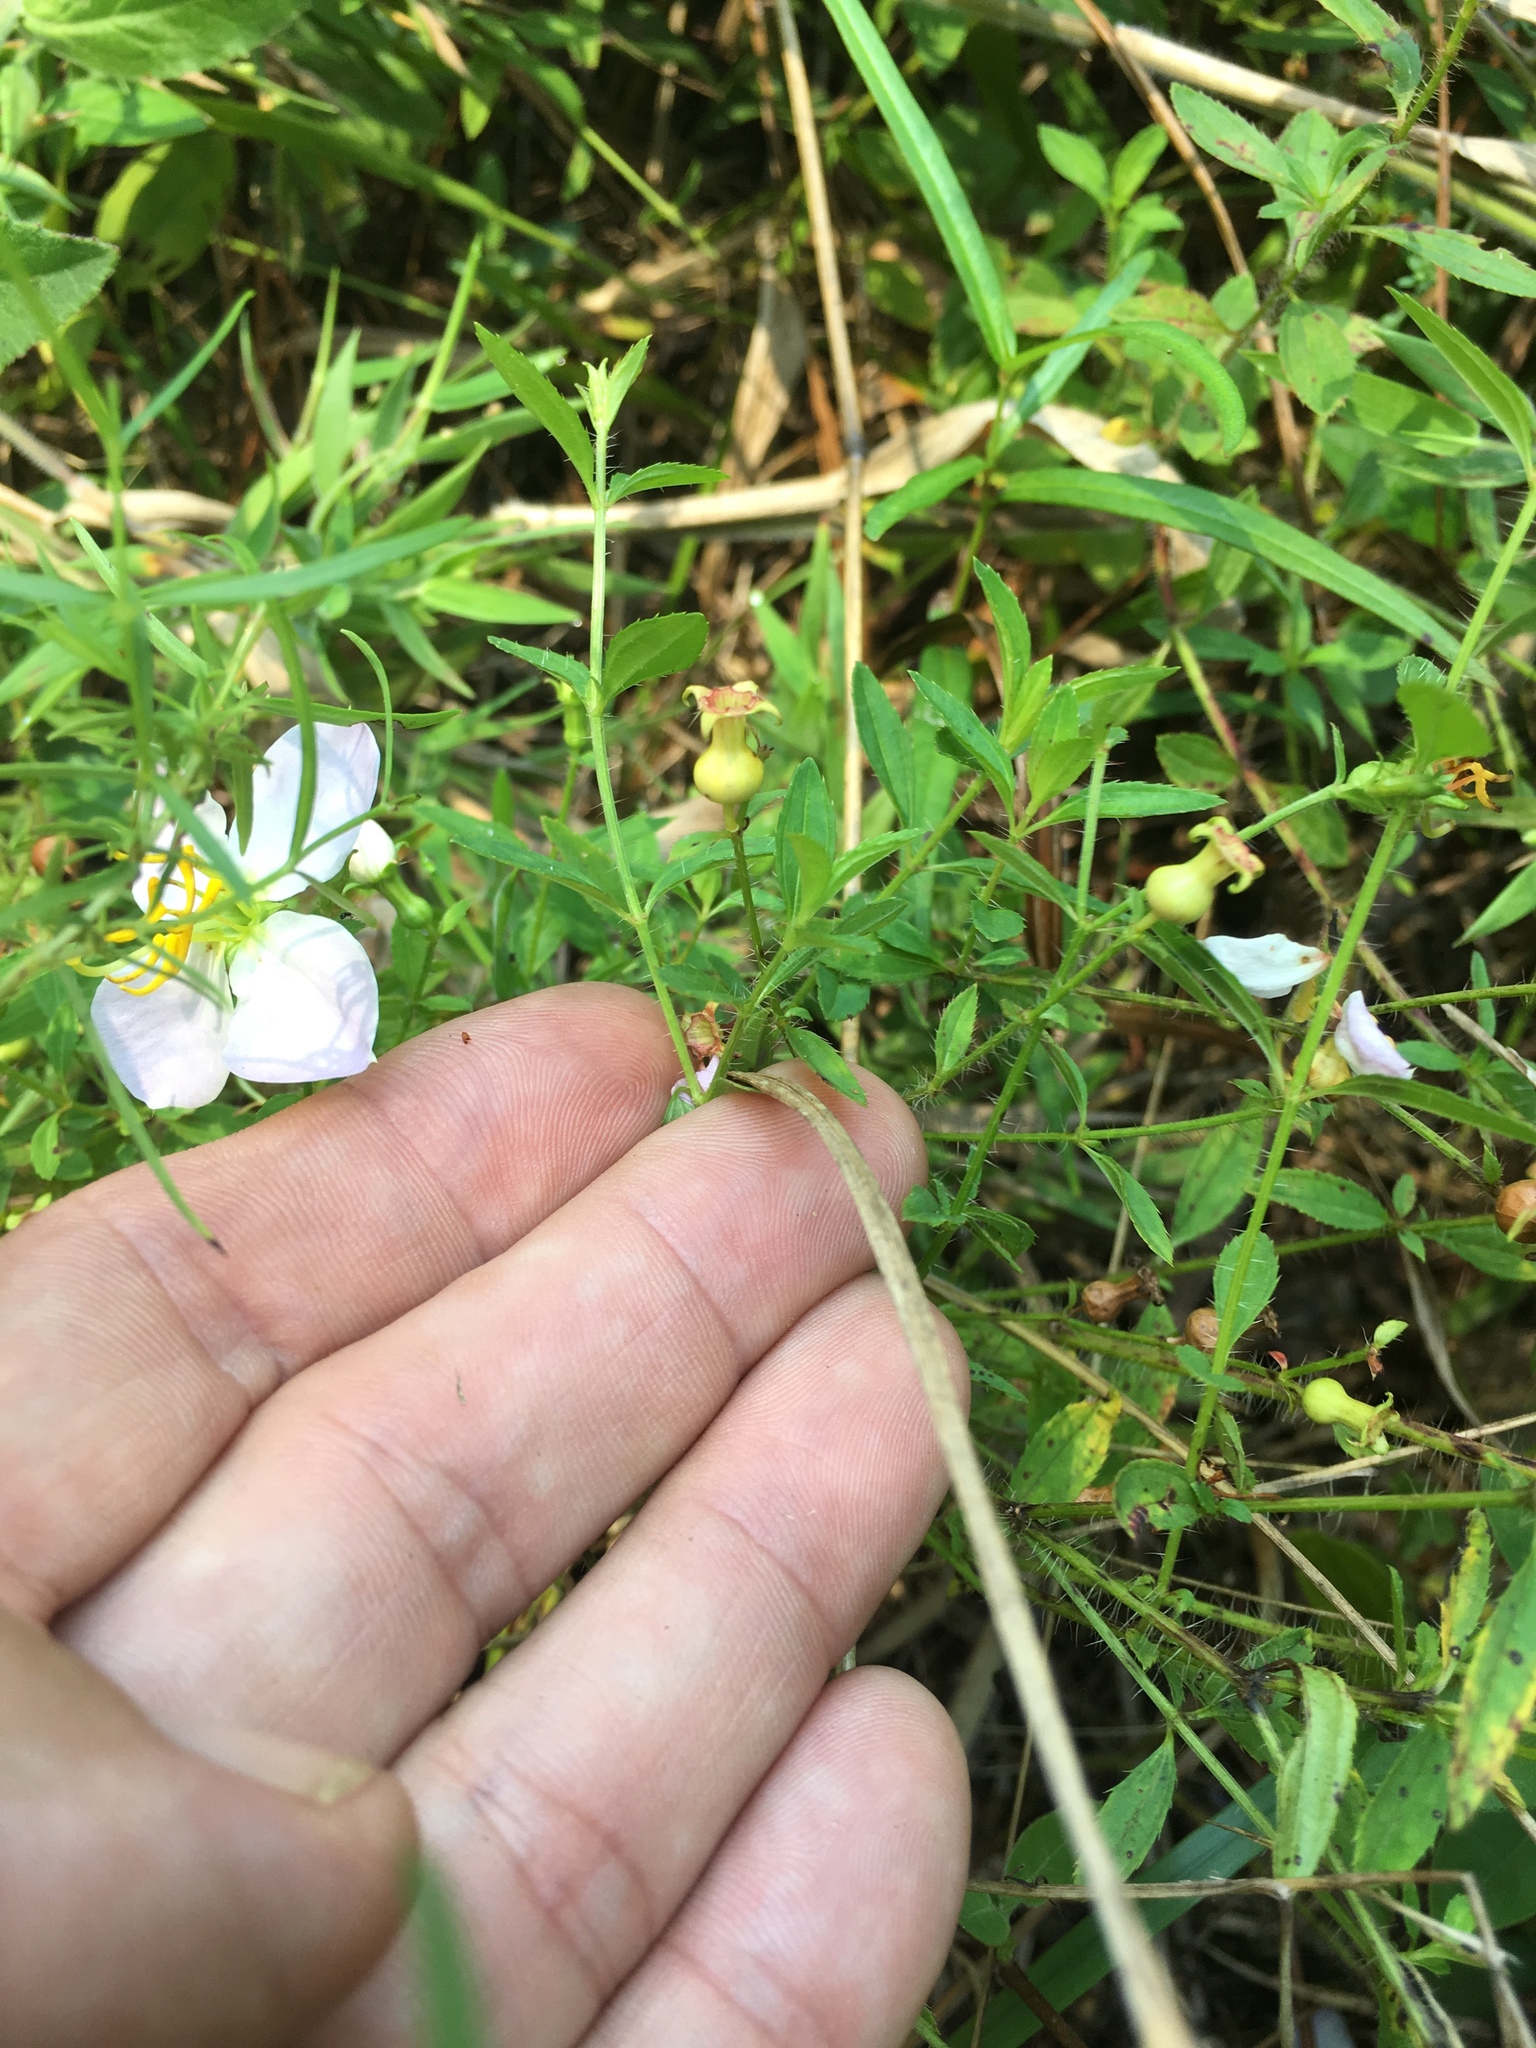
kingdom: Plantae
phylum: Tracheophyta
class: Magnoliopsida
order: Myrtales
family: Melastomataceae
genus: Rhexia
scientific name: Rhexia mariana
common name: Dull meadow-pitcher
